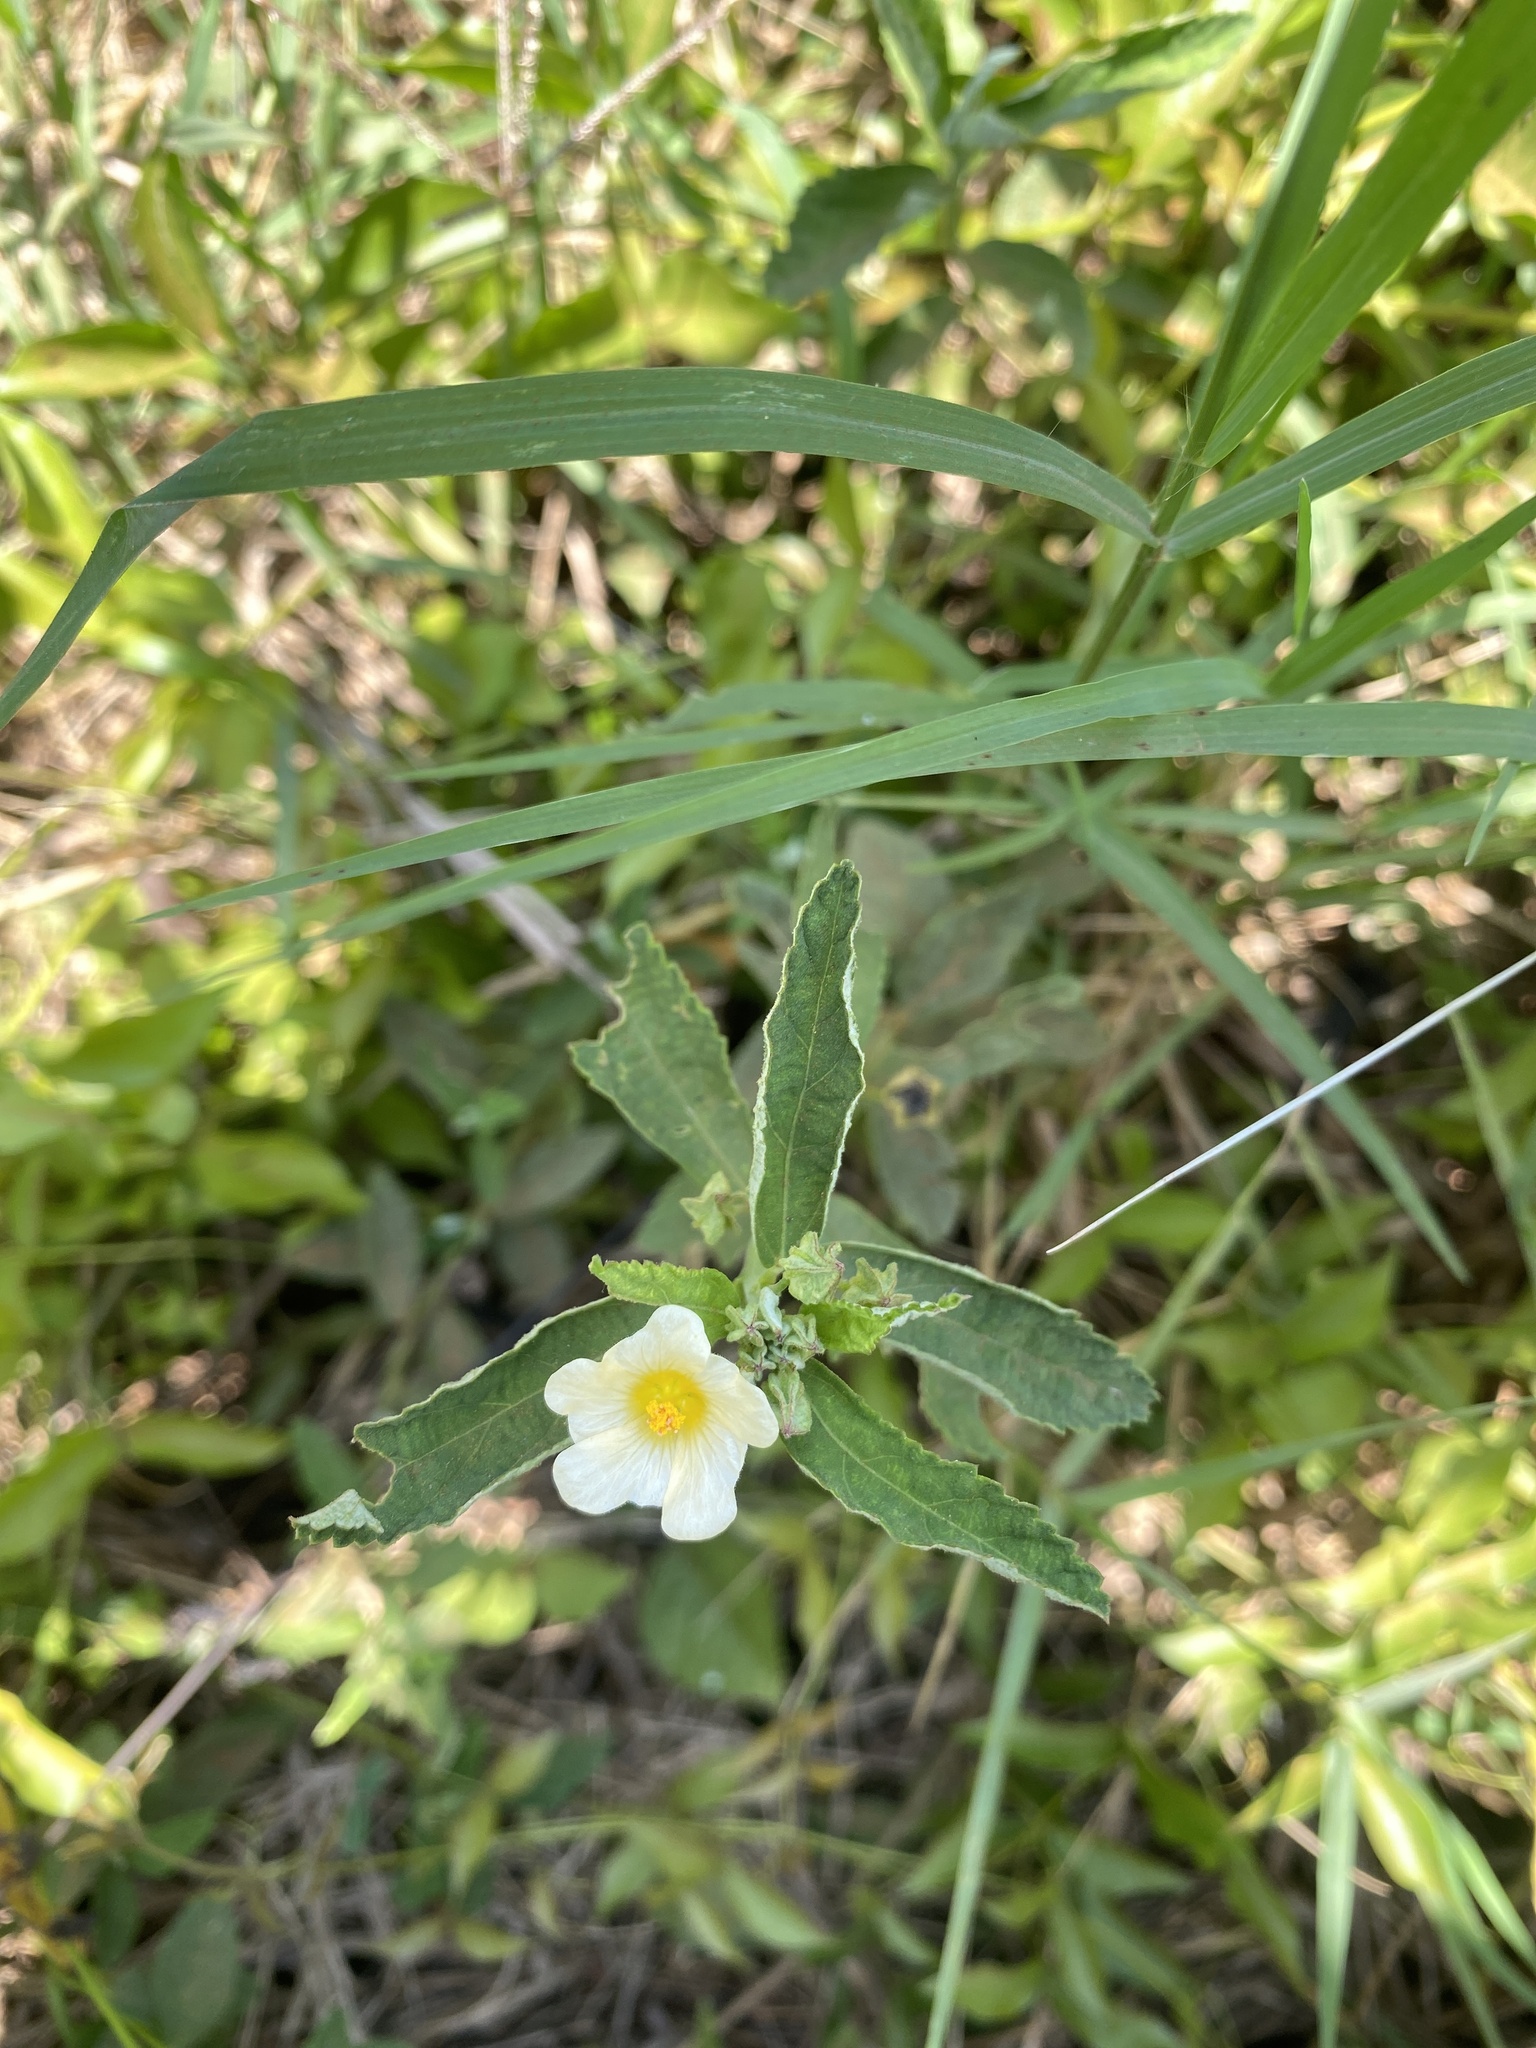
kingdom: Plantae
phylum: Tracheophyta
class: Magnoliopsida
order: Malvales
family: Malvaceae
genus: Sida
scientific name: Sida rhombifolia
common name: Queensland-hemp
